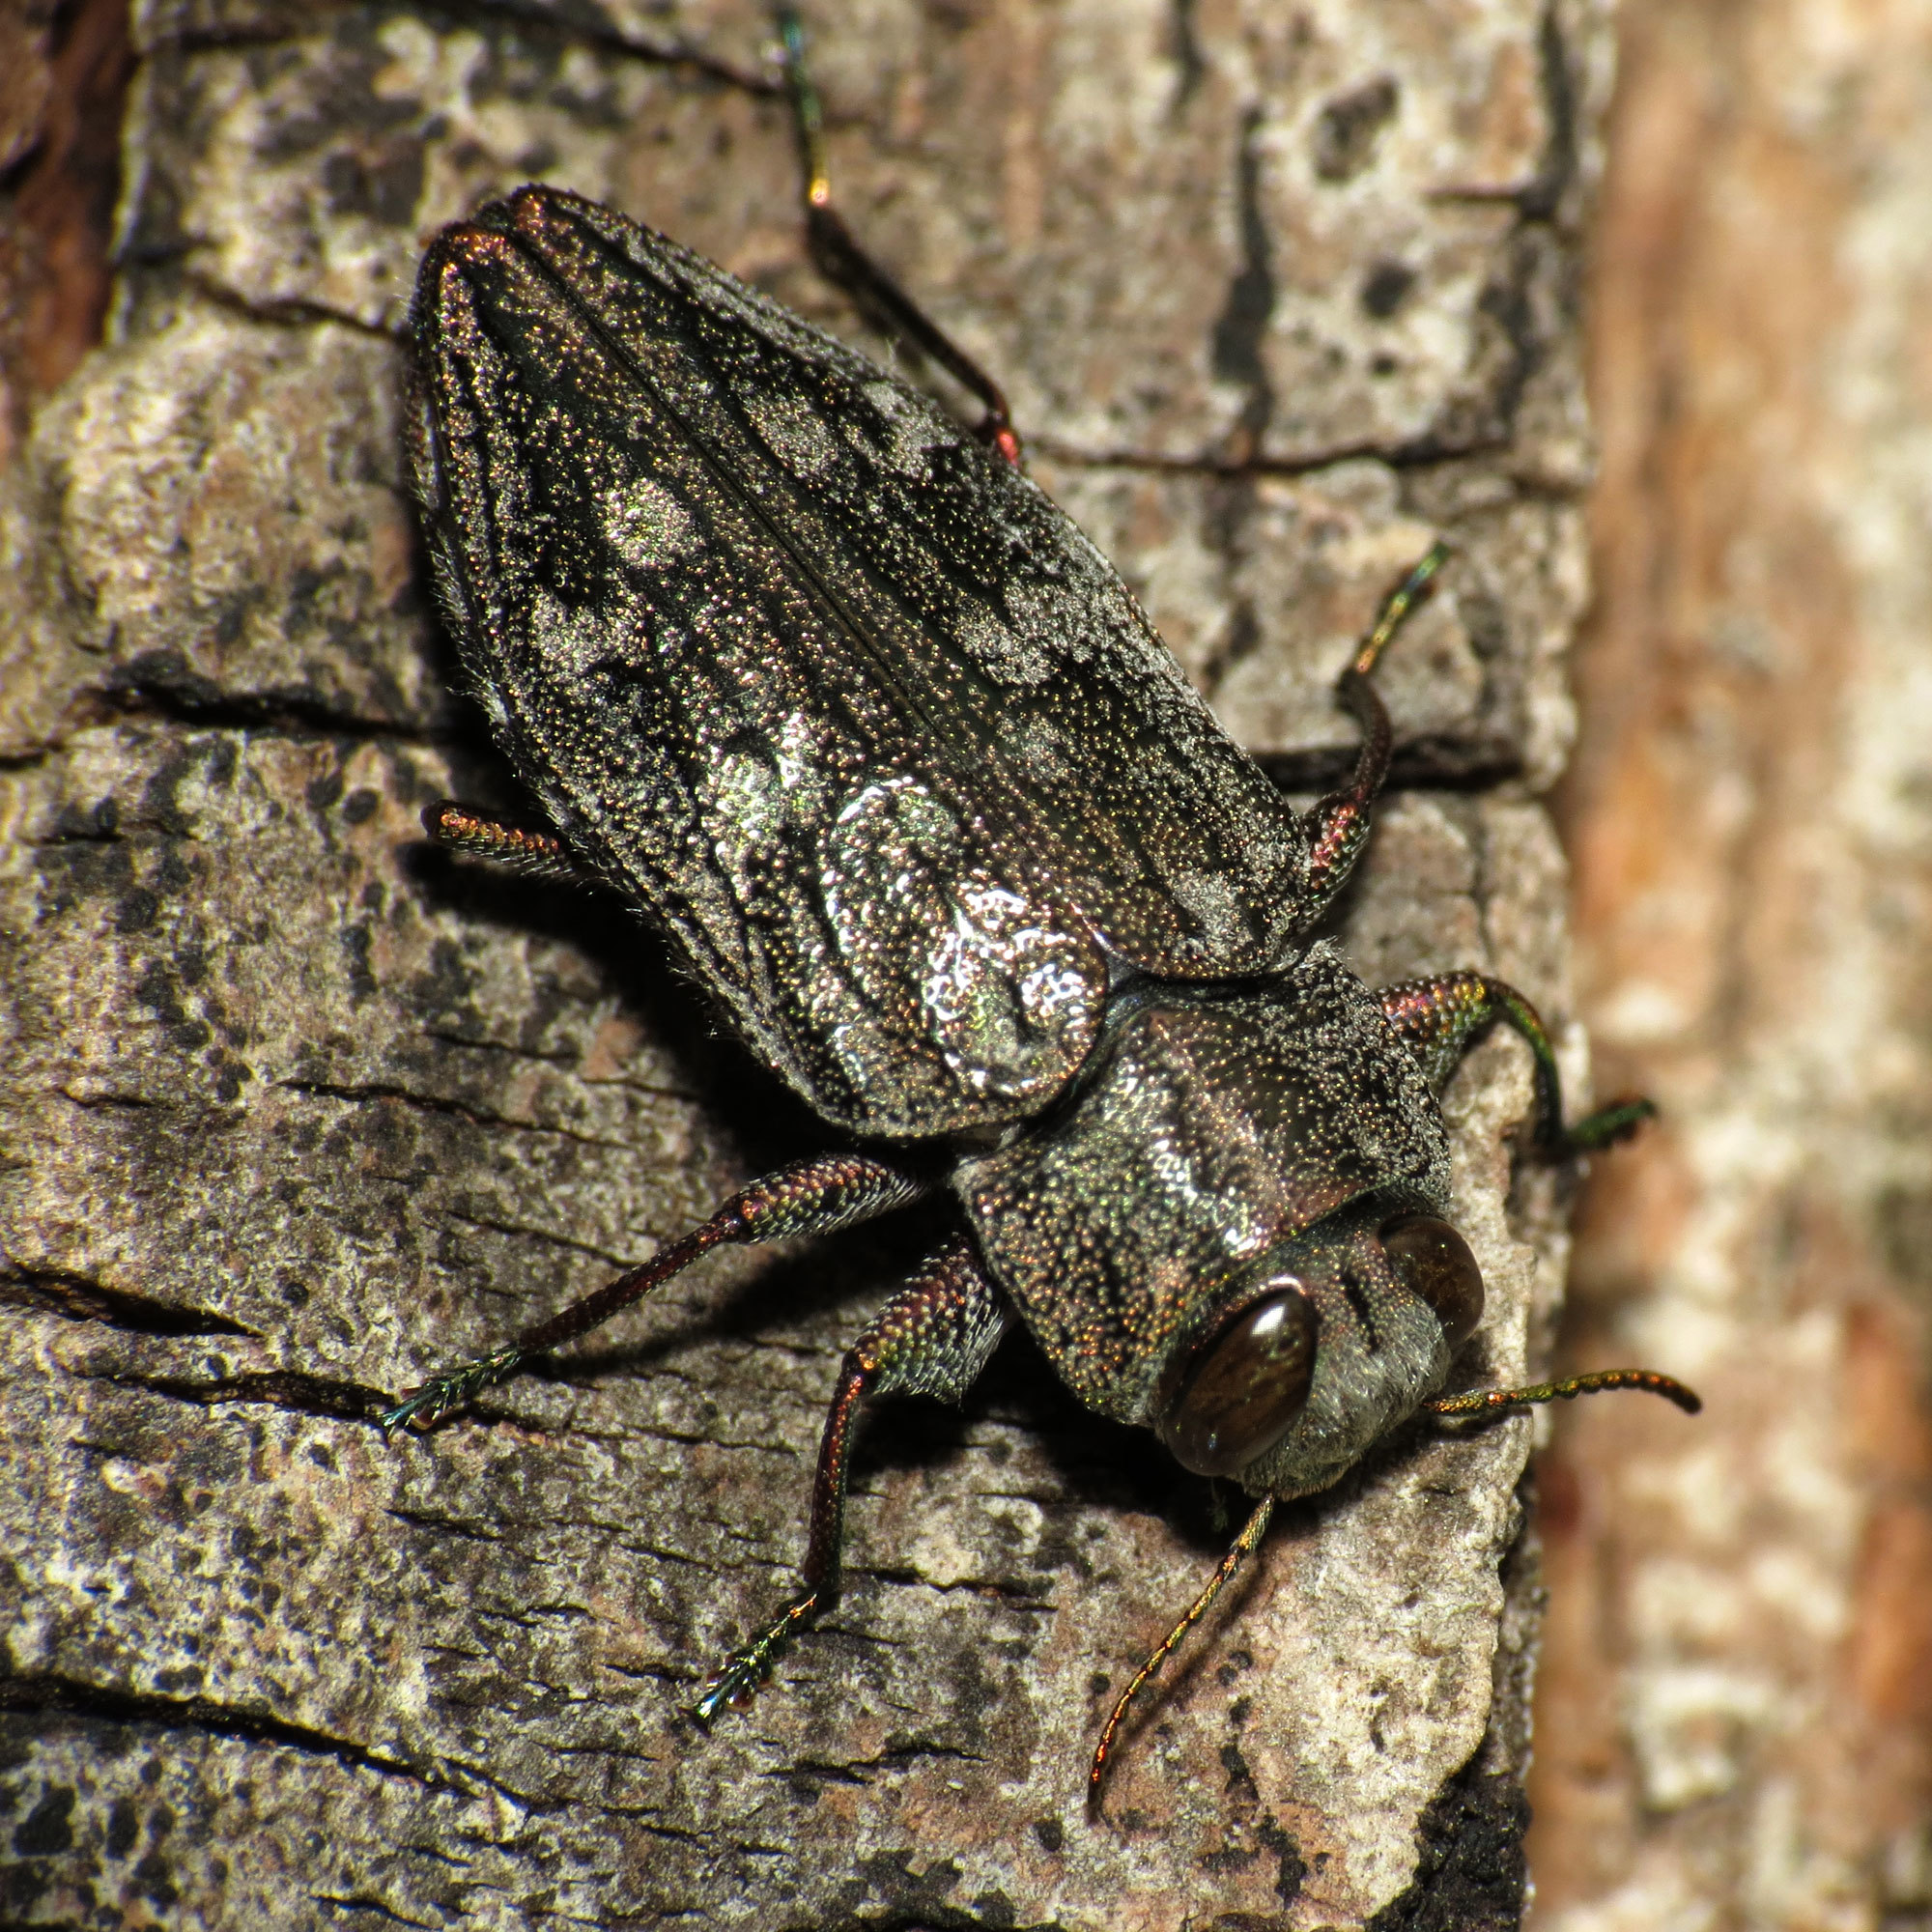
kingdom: Animalia
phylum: Arthropoda
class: Insecta
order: Coleoptera
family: Buprestidae
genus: Chrysobothris
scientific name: Chrysobothris femorata
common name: Flat-headed apple tree borer
